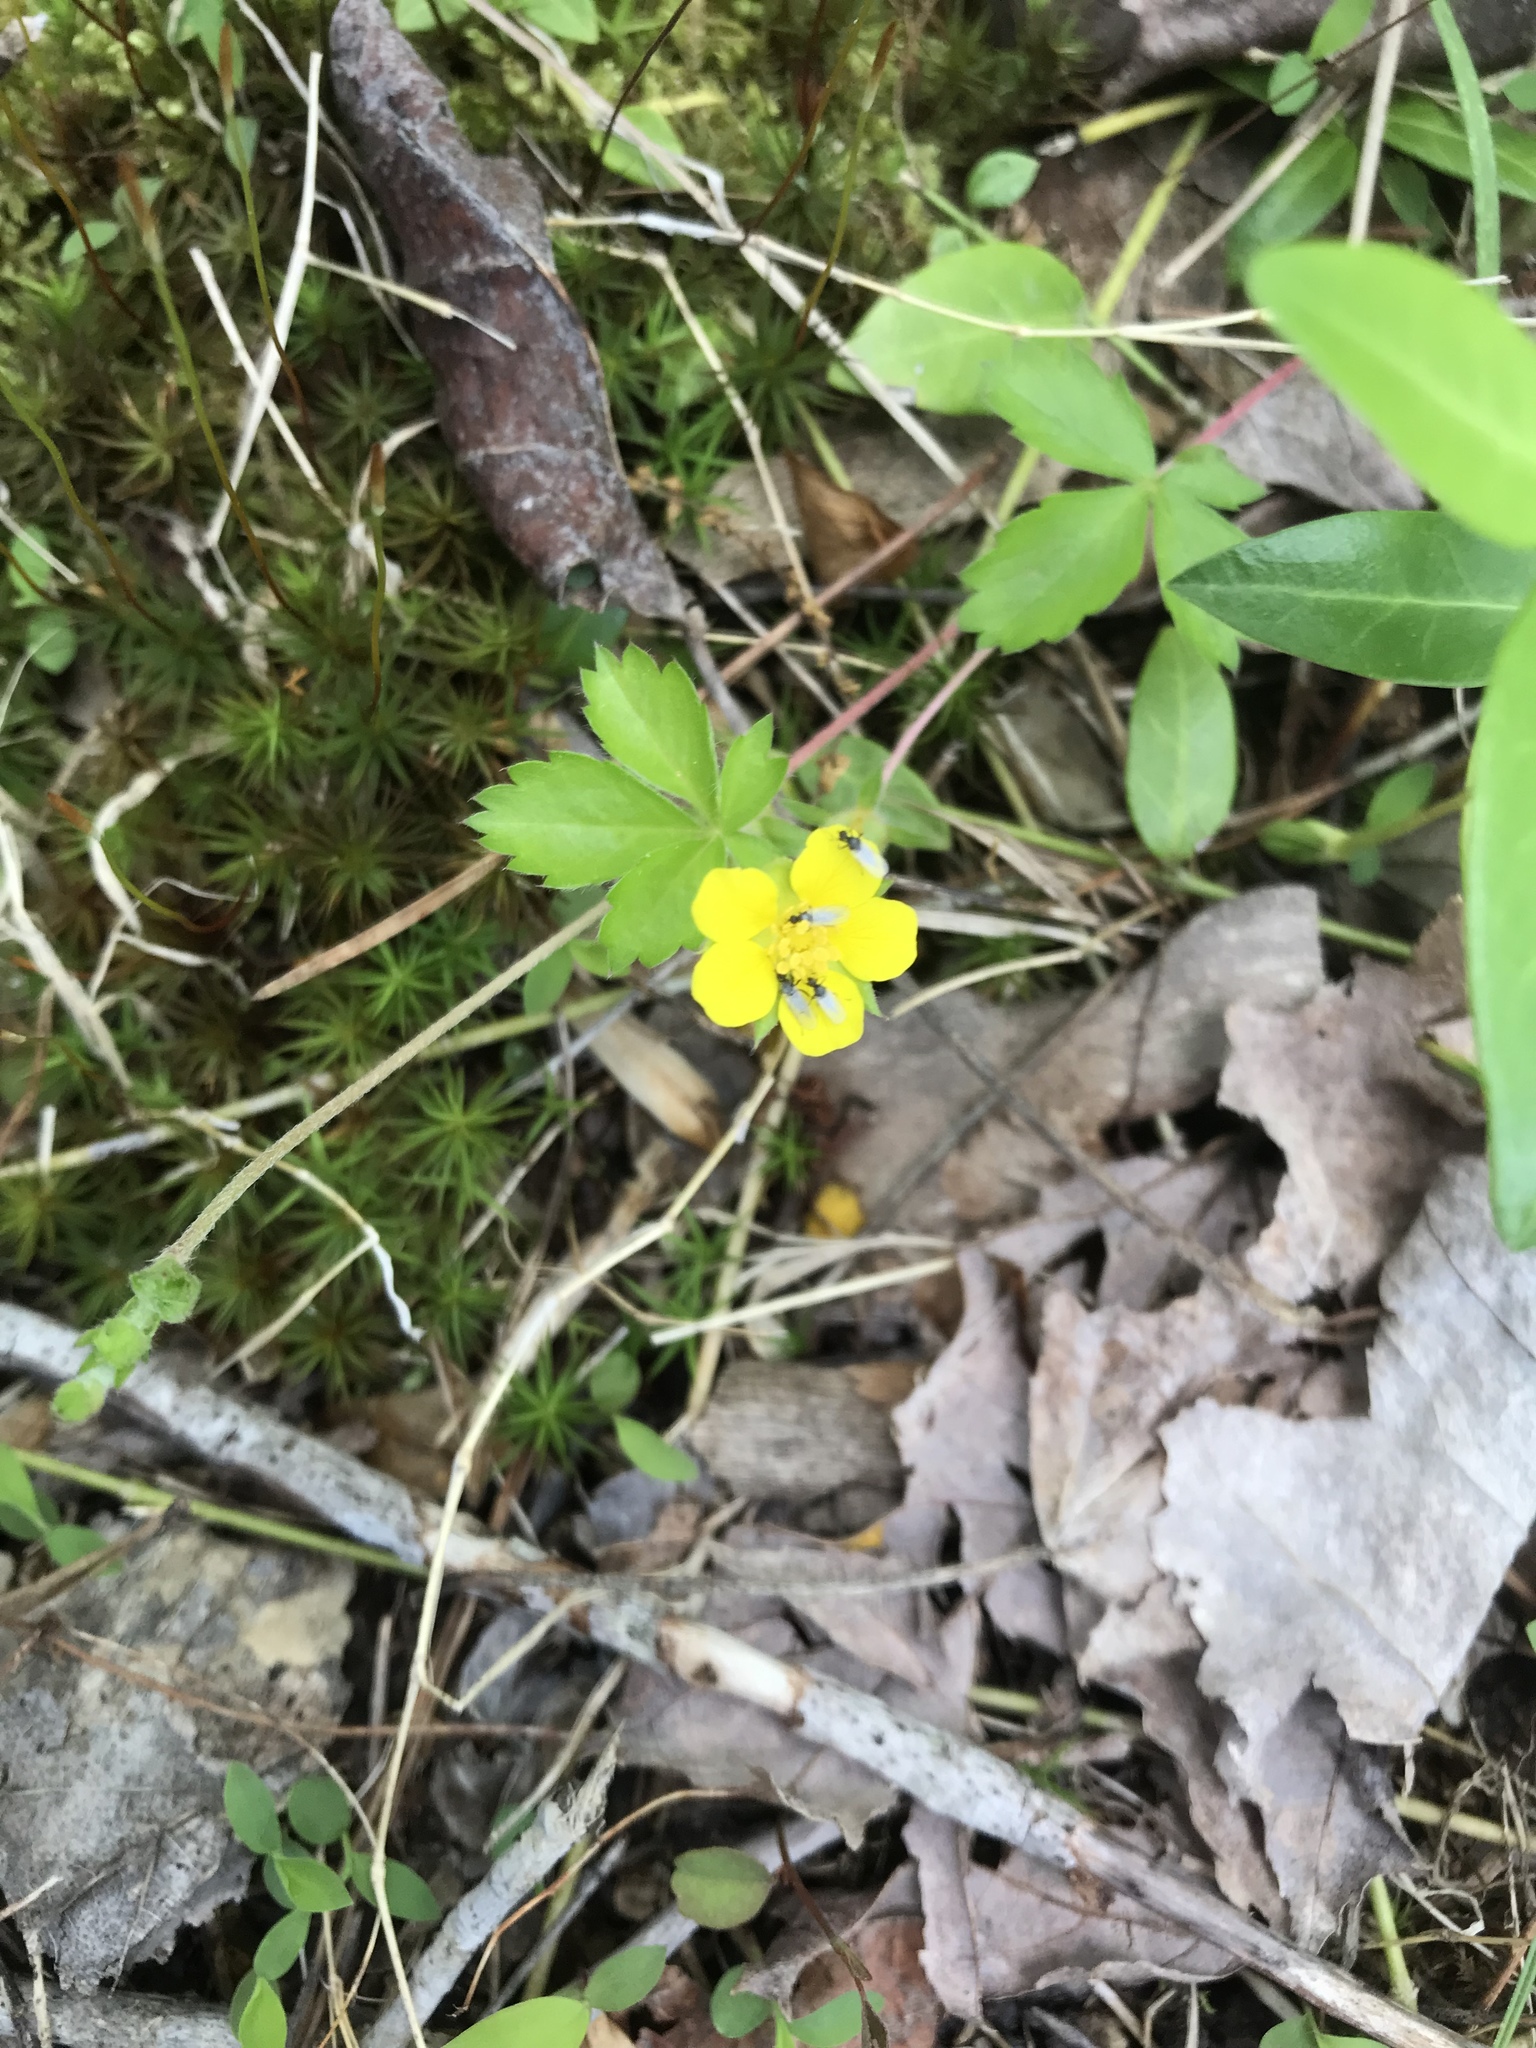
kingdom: Plantae
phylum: Tracheophyta
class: Magnoliopsida
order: Rosales
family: Rosaceae
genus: Potentilla
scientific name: Potentilla simplex
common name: Old field cinquefoil
